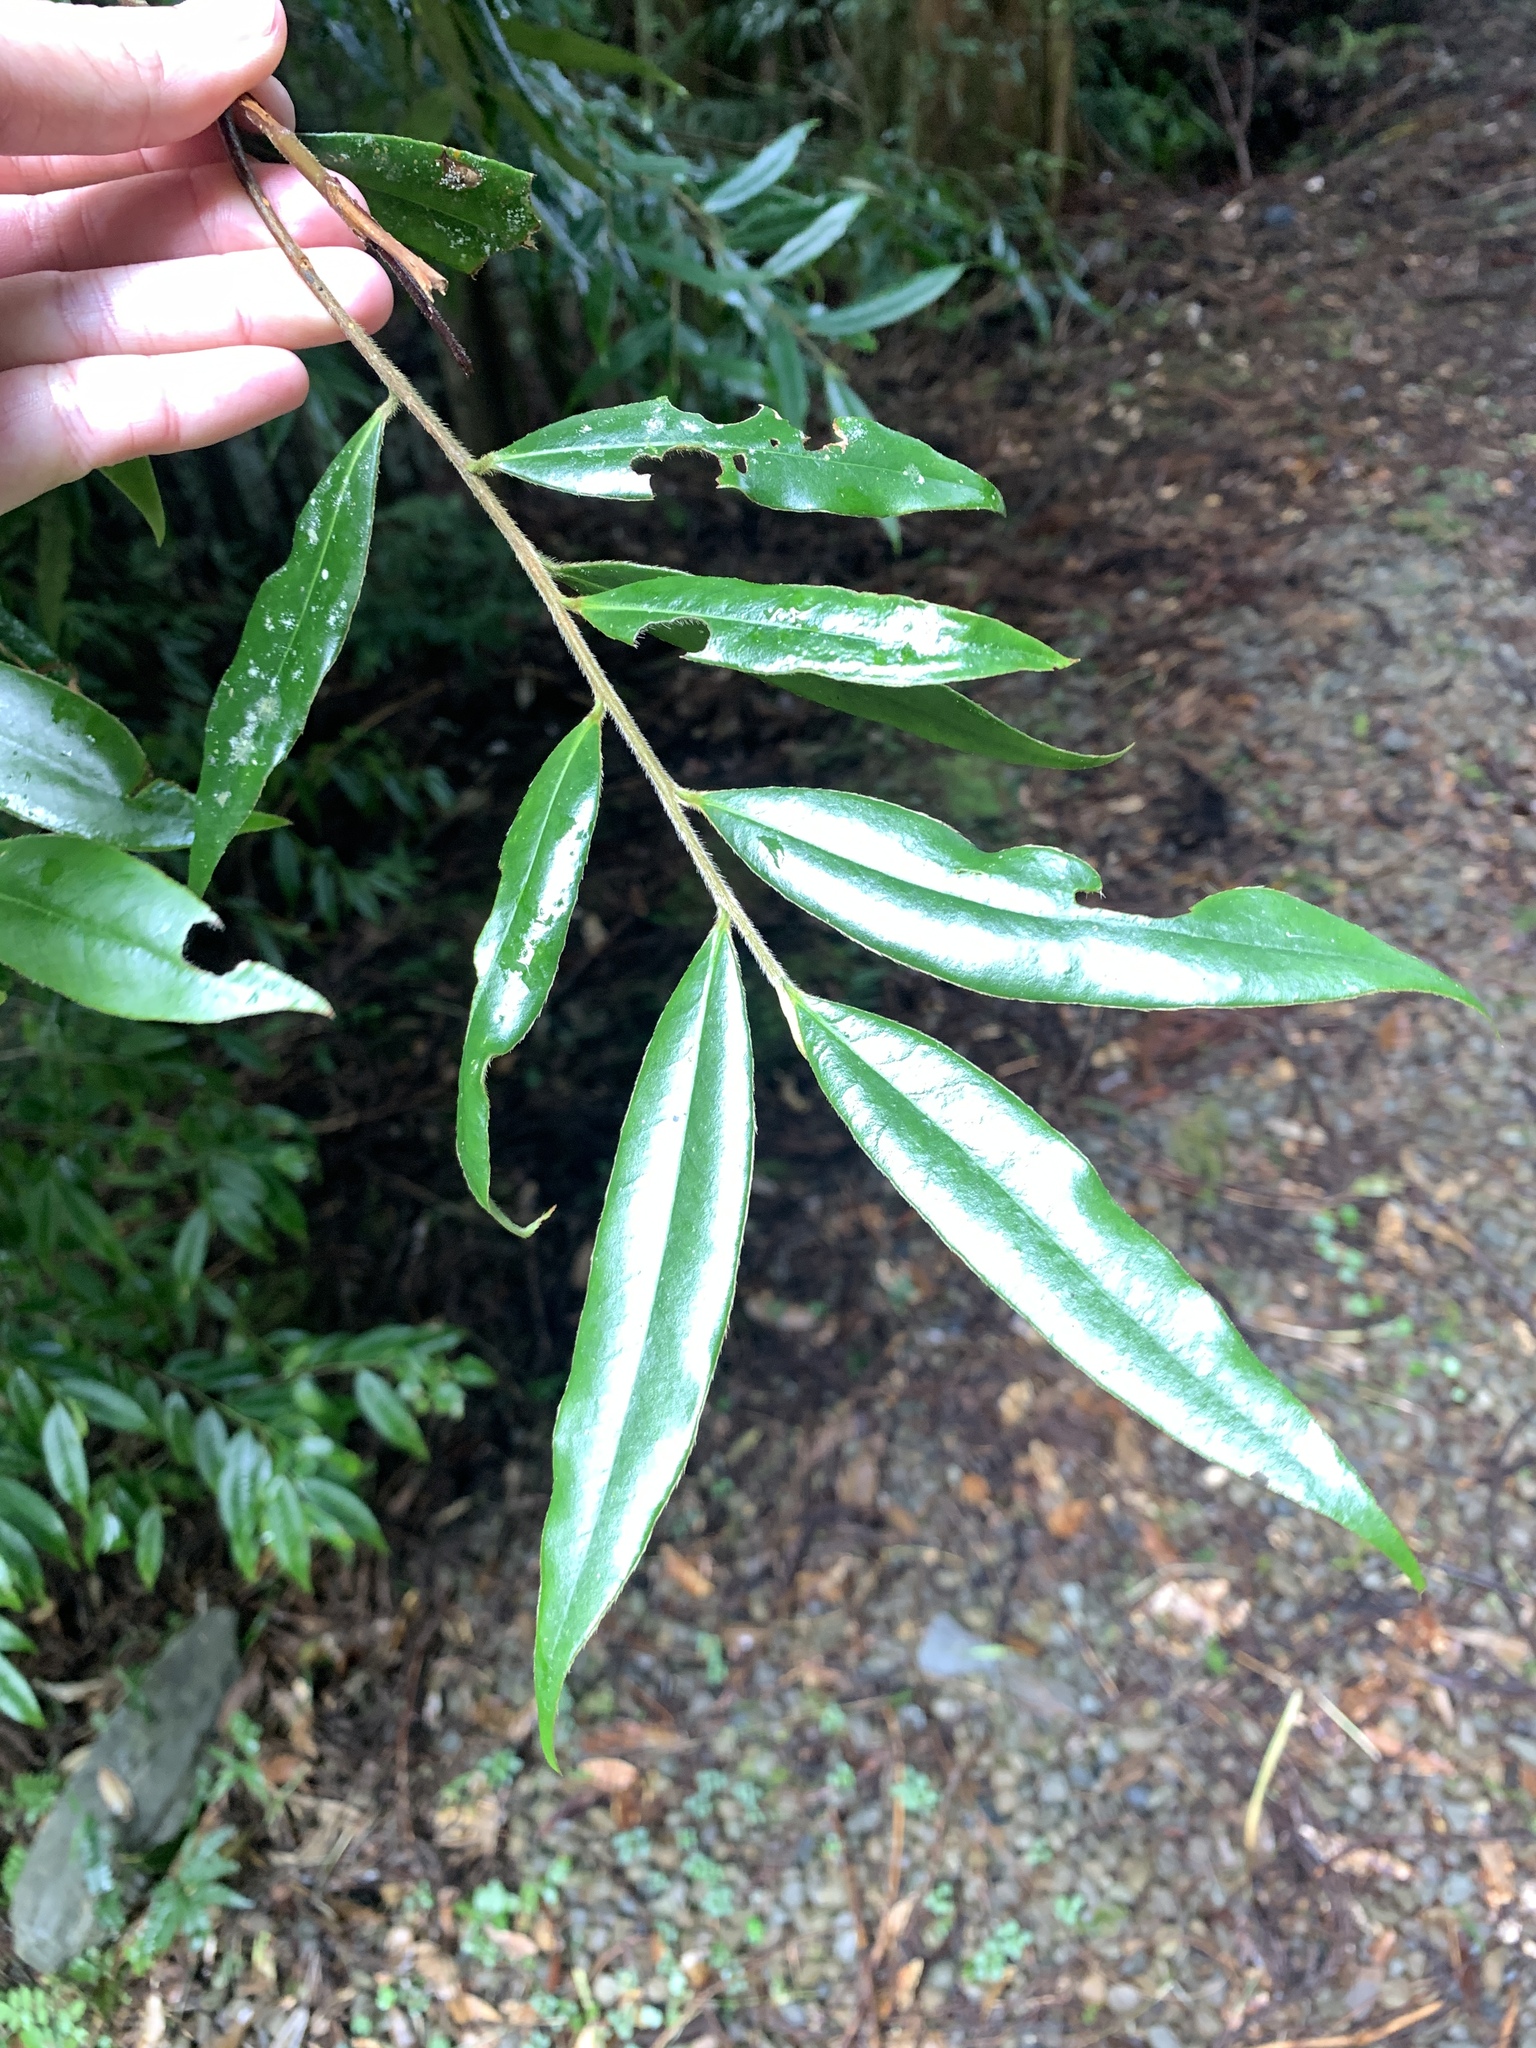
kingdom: Plantae
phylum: Tracheophyta
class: Magnoliopsida
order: Ericales
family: Pentaphylacaceae
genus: Eurya
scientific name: Eurya strigillosa
